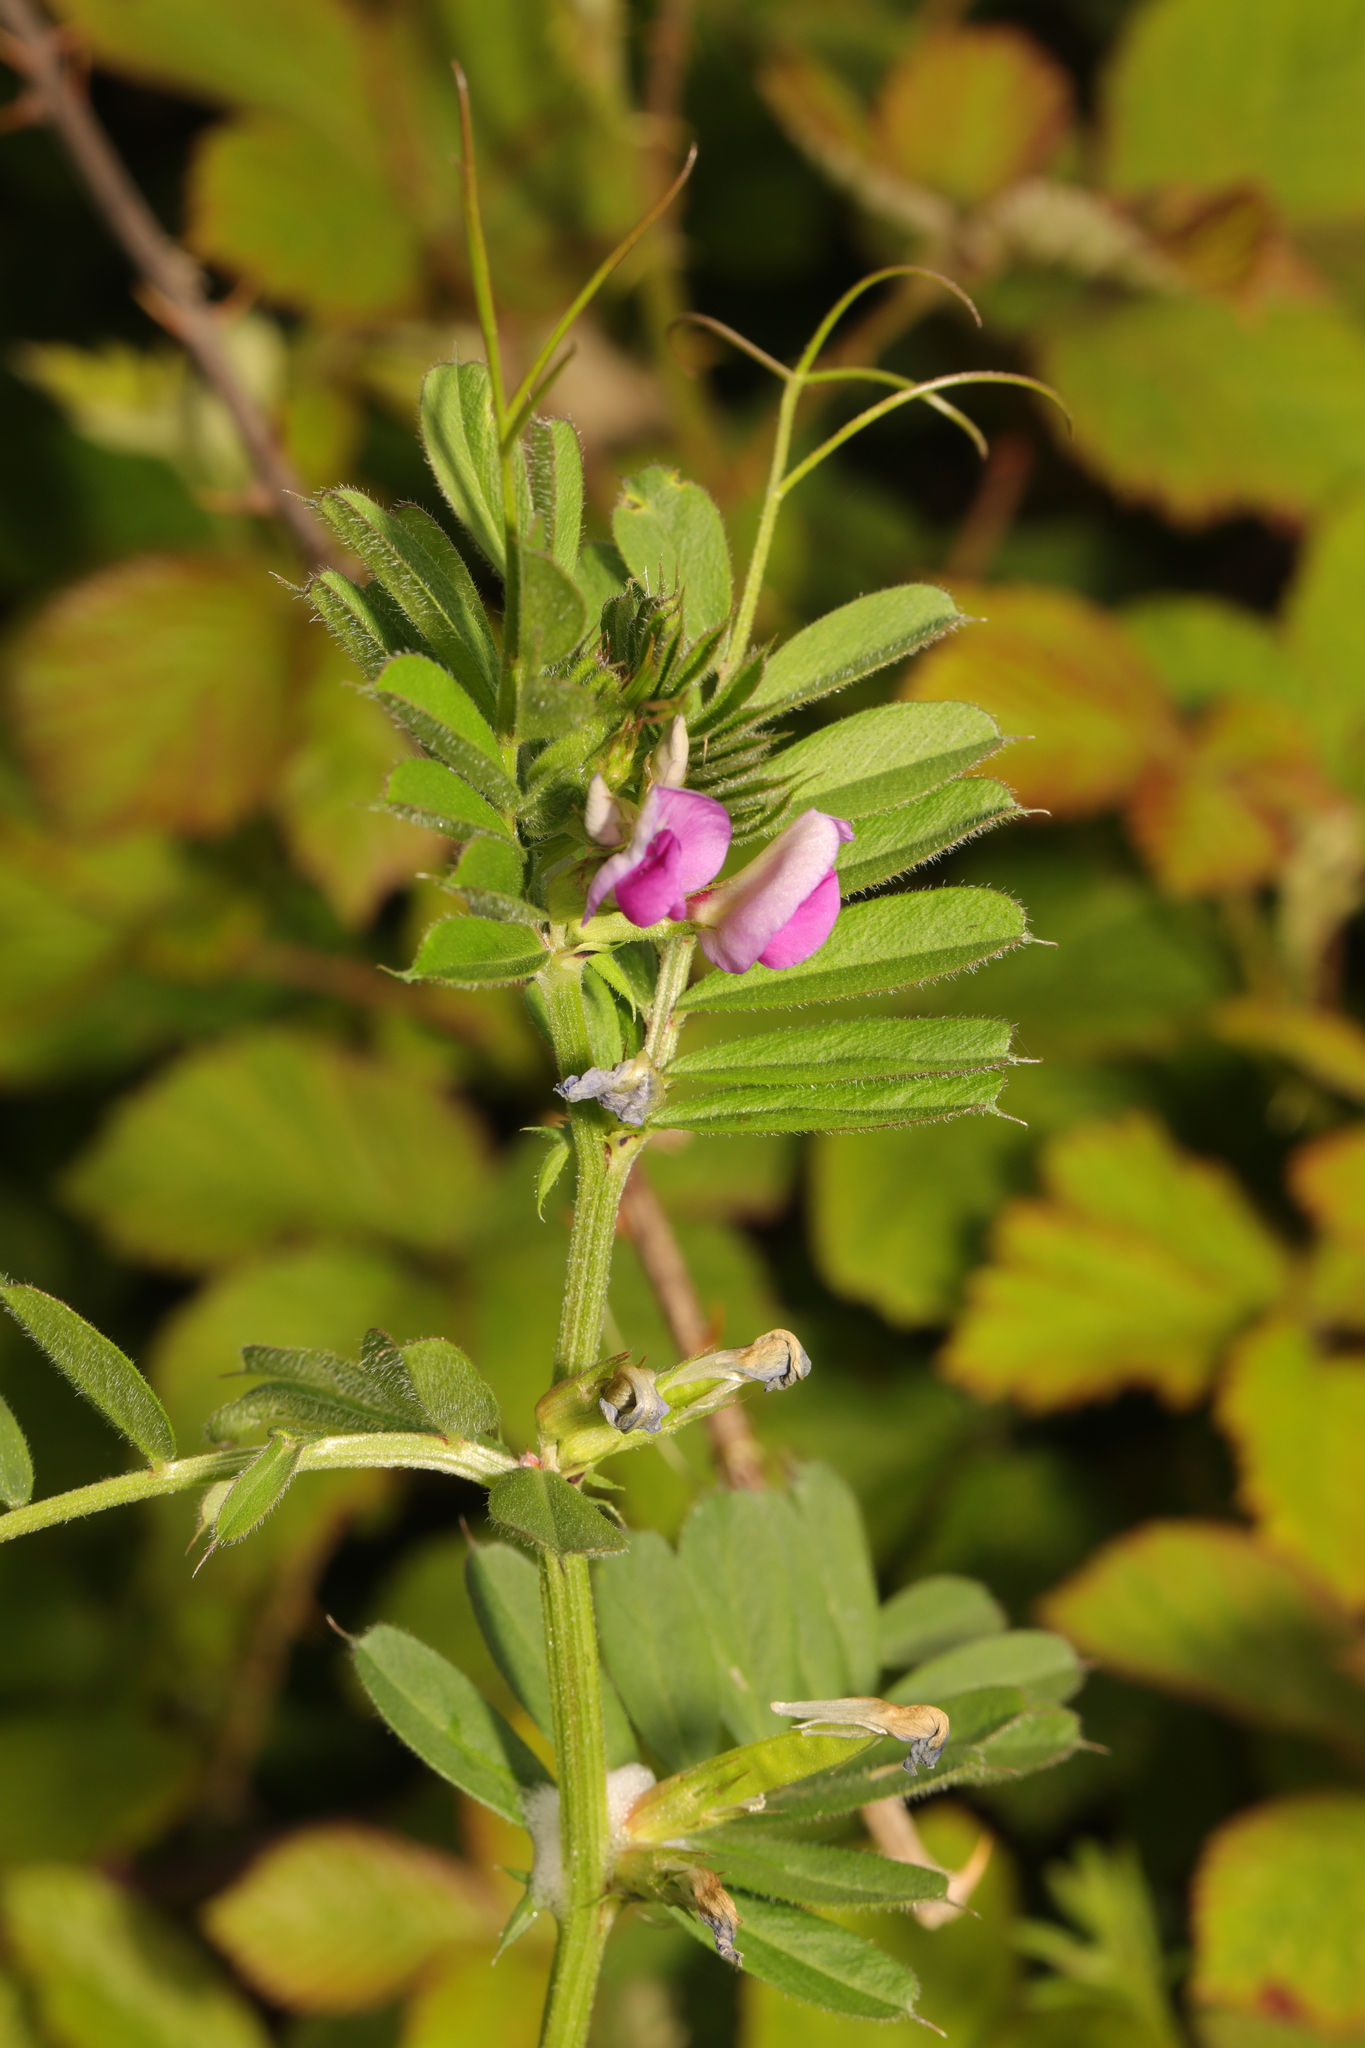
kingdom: Plantae
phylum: Tracheophyta
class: Magnoliopsida
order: Fabales
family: Fabaceae
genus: Vicia
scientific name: Vicia sativa
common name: Garden vetch
